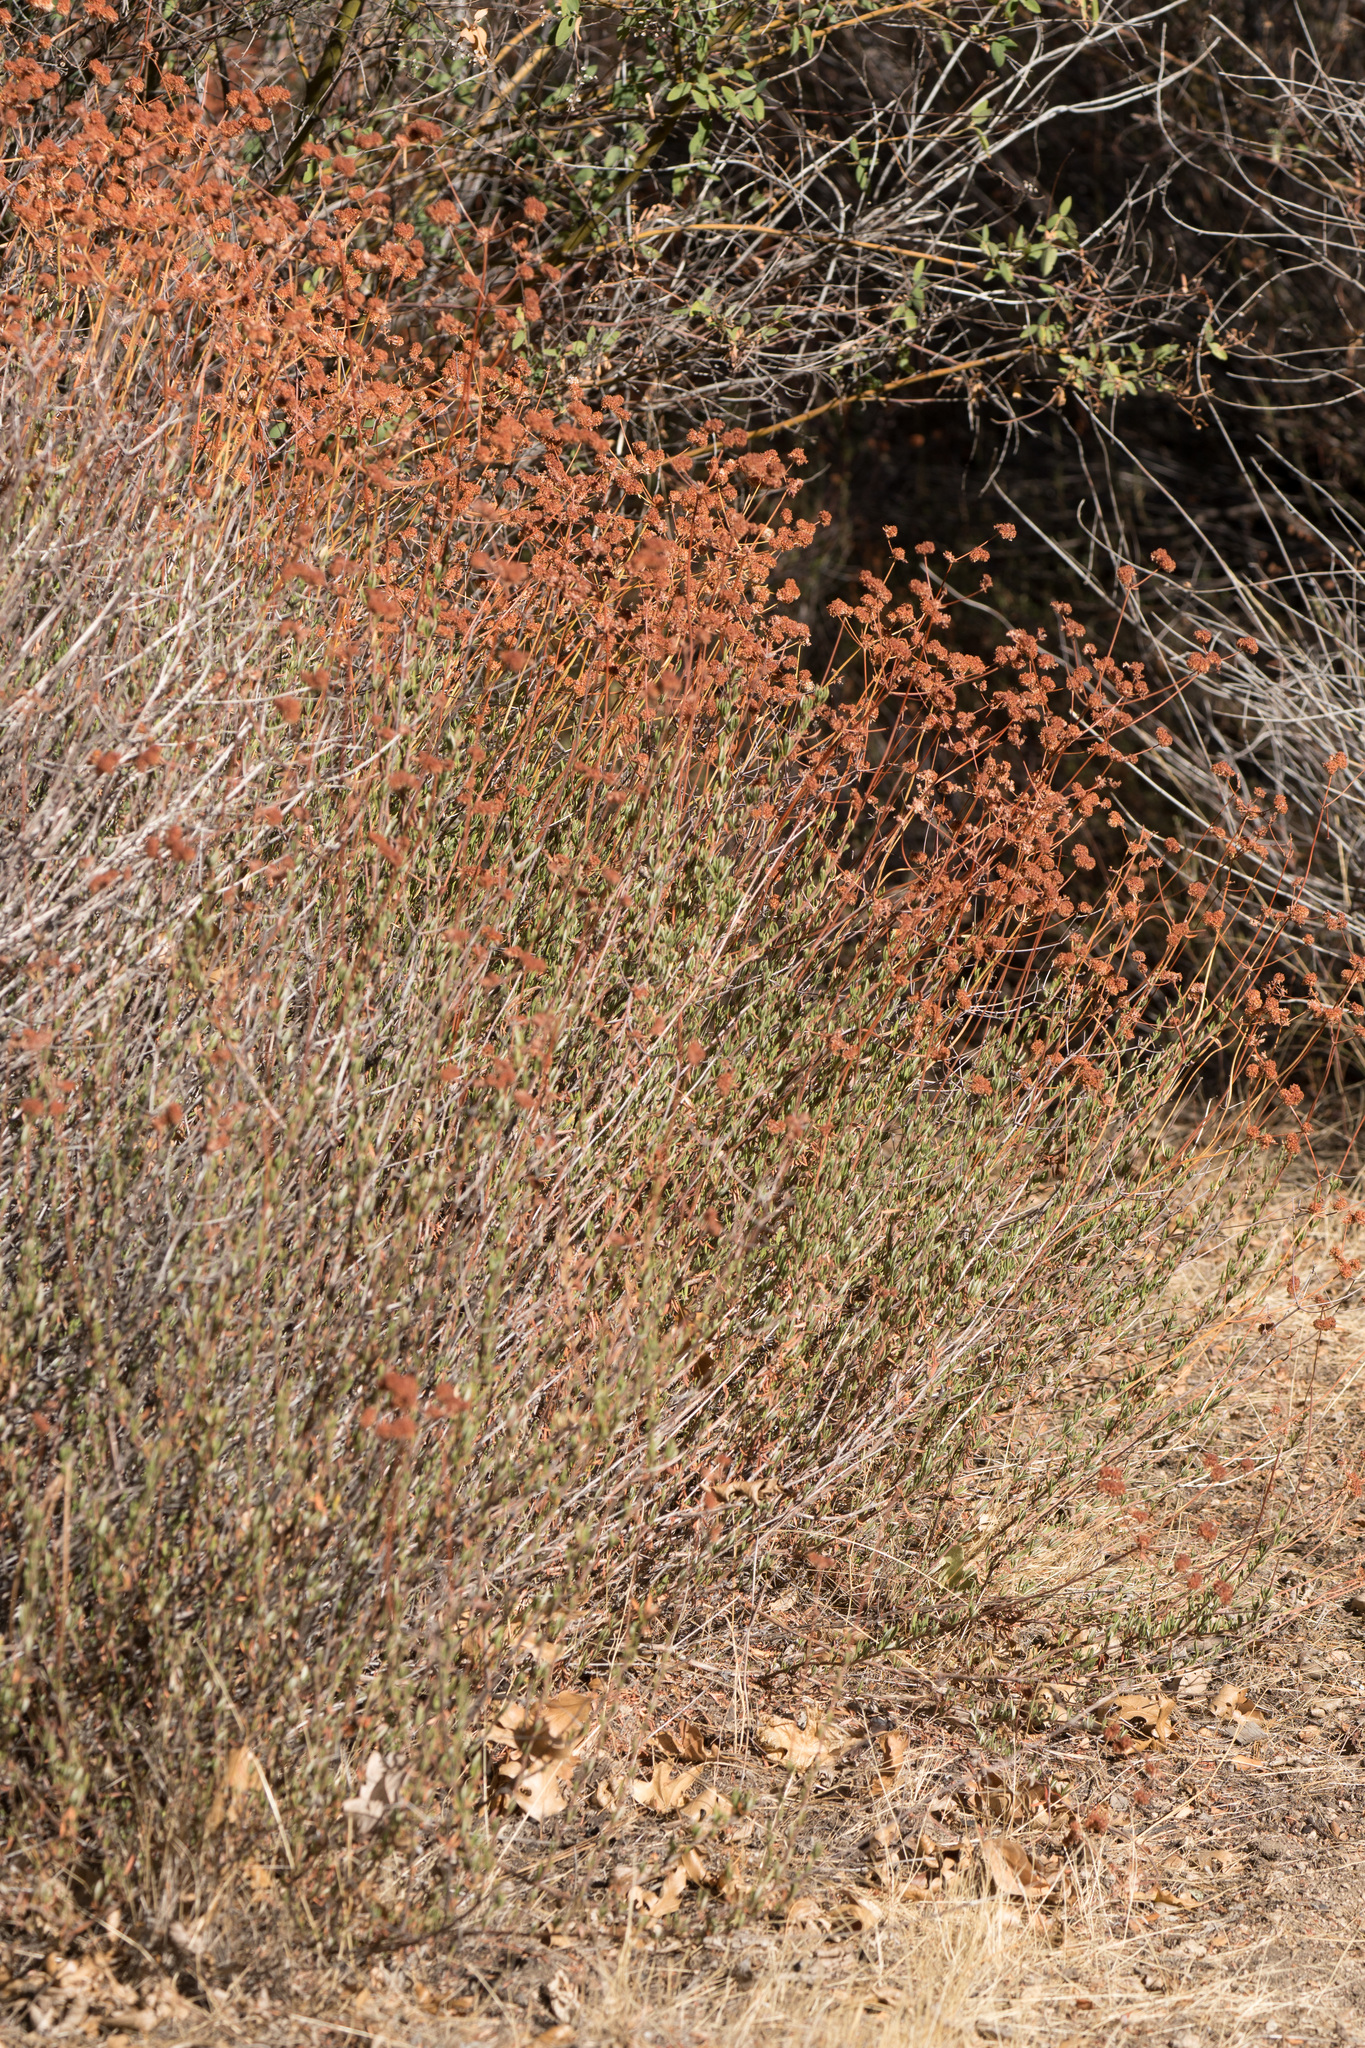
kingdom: Plantae
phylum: Tracheophyta
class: Magnoliopsida
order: Caryophyllales
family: Polygonaceae
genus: Eriogonum
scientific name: Eriogonum fasciculatum
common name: California wild buckwheat
